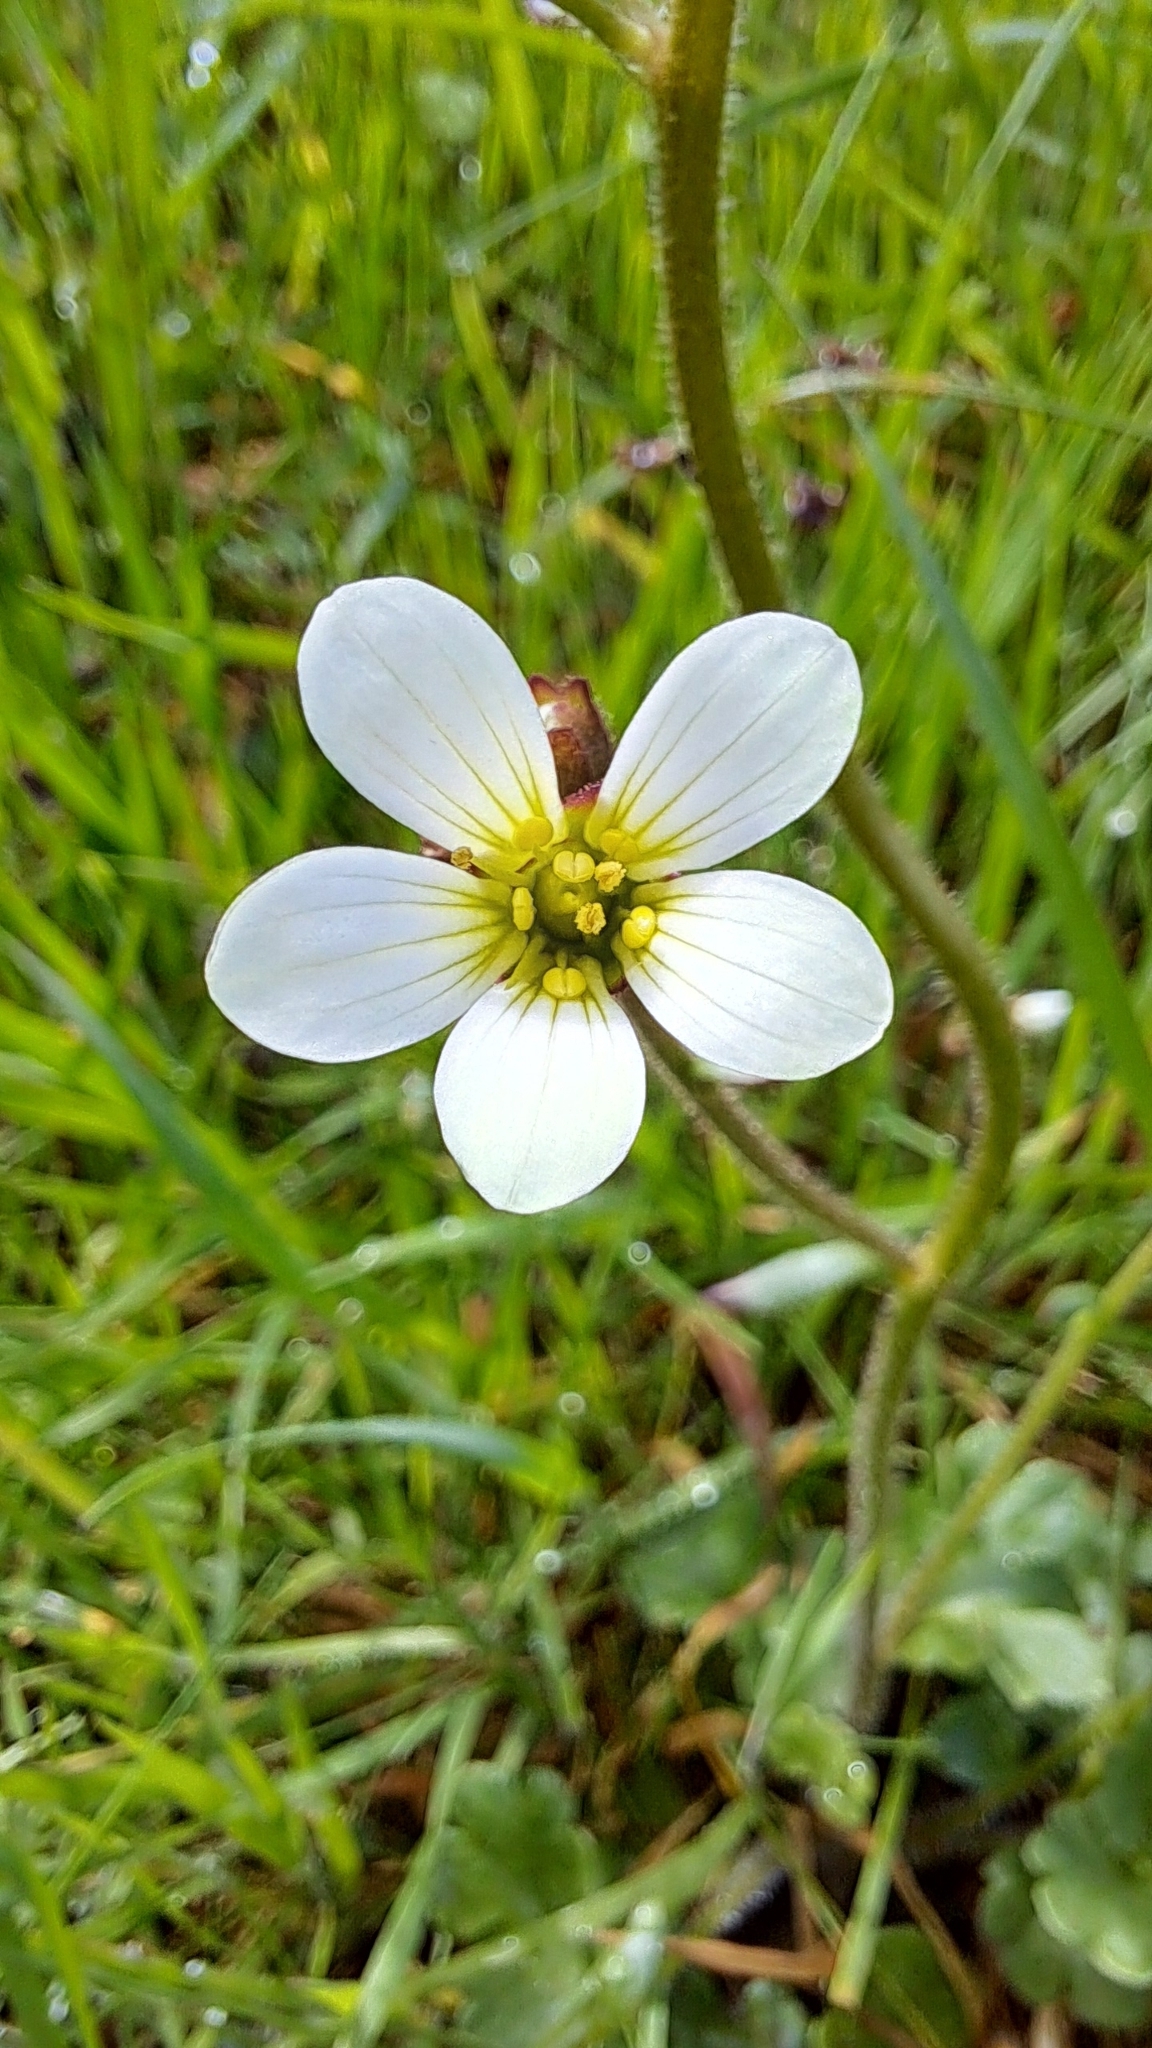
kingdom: Plantae
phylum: Tracheophyta
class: Magnoliopsida
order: Saxifragales
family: Saxifragaceae
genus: Saxifraga
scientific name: Saxifraga granulata
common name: Meadow saxifrage
